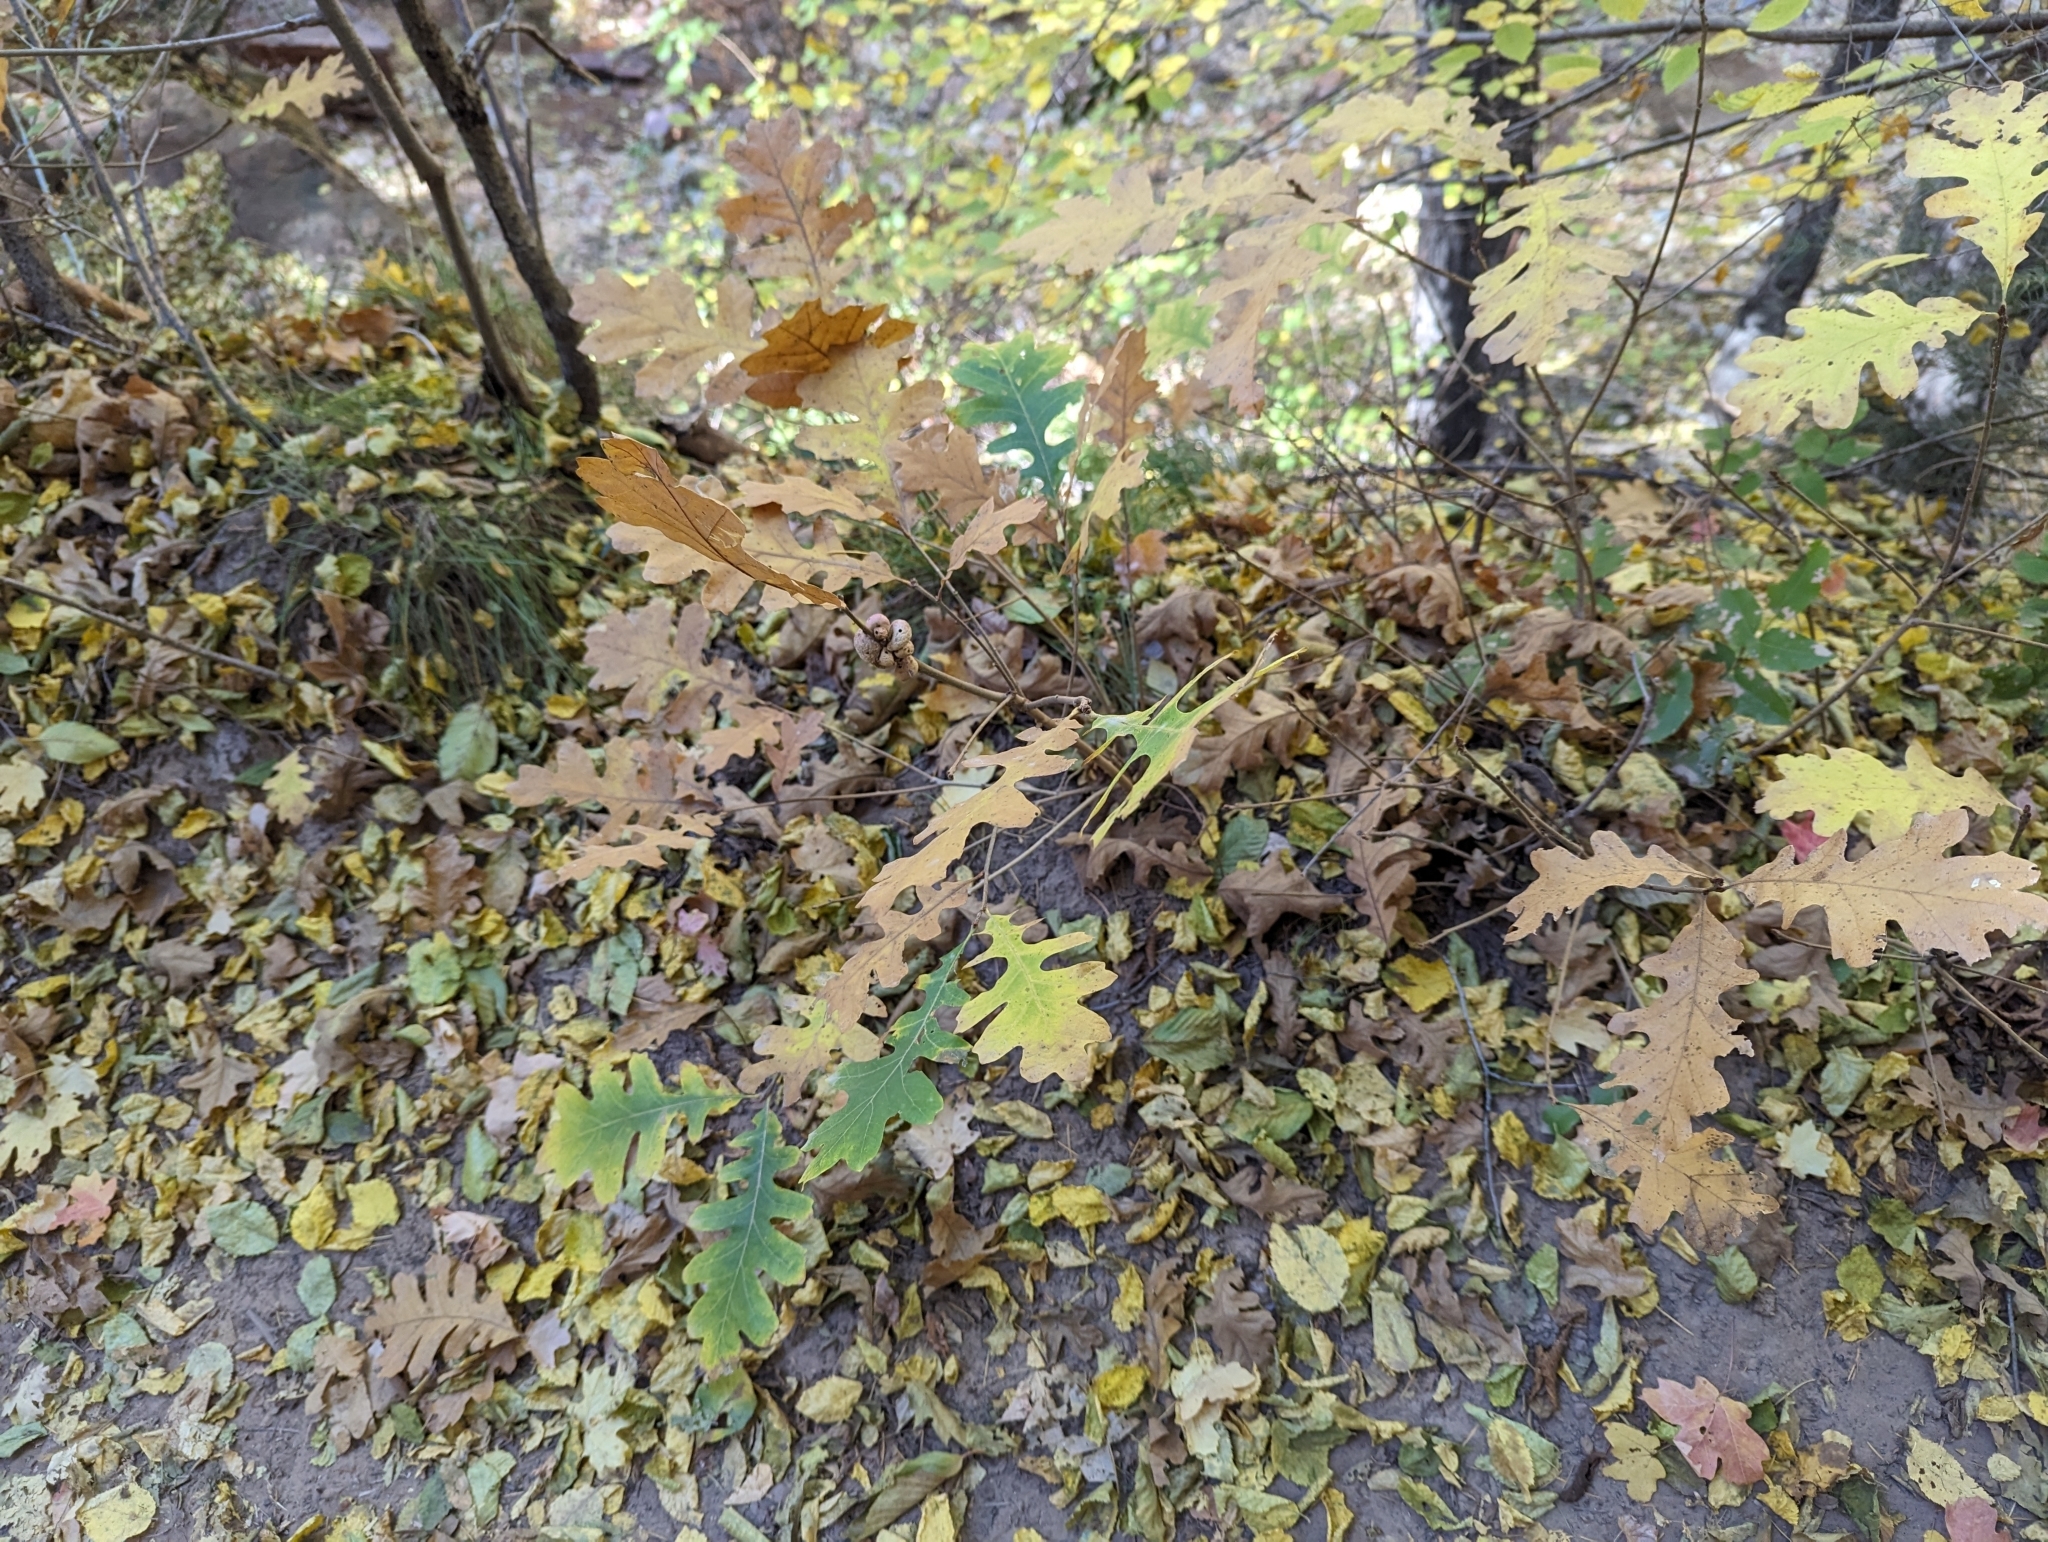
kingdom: Plantae
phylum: Tracheophyta
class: Magnoliopsida
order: Fagales
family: Fagaceae
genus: Quercus
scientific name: Quercus gambelii
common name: Gambel oak
